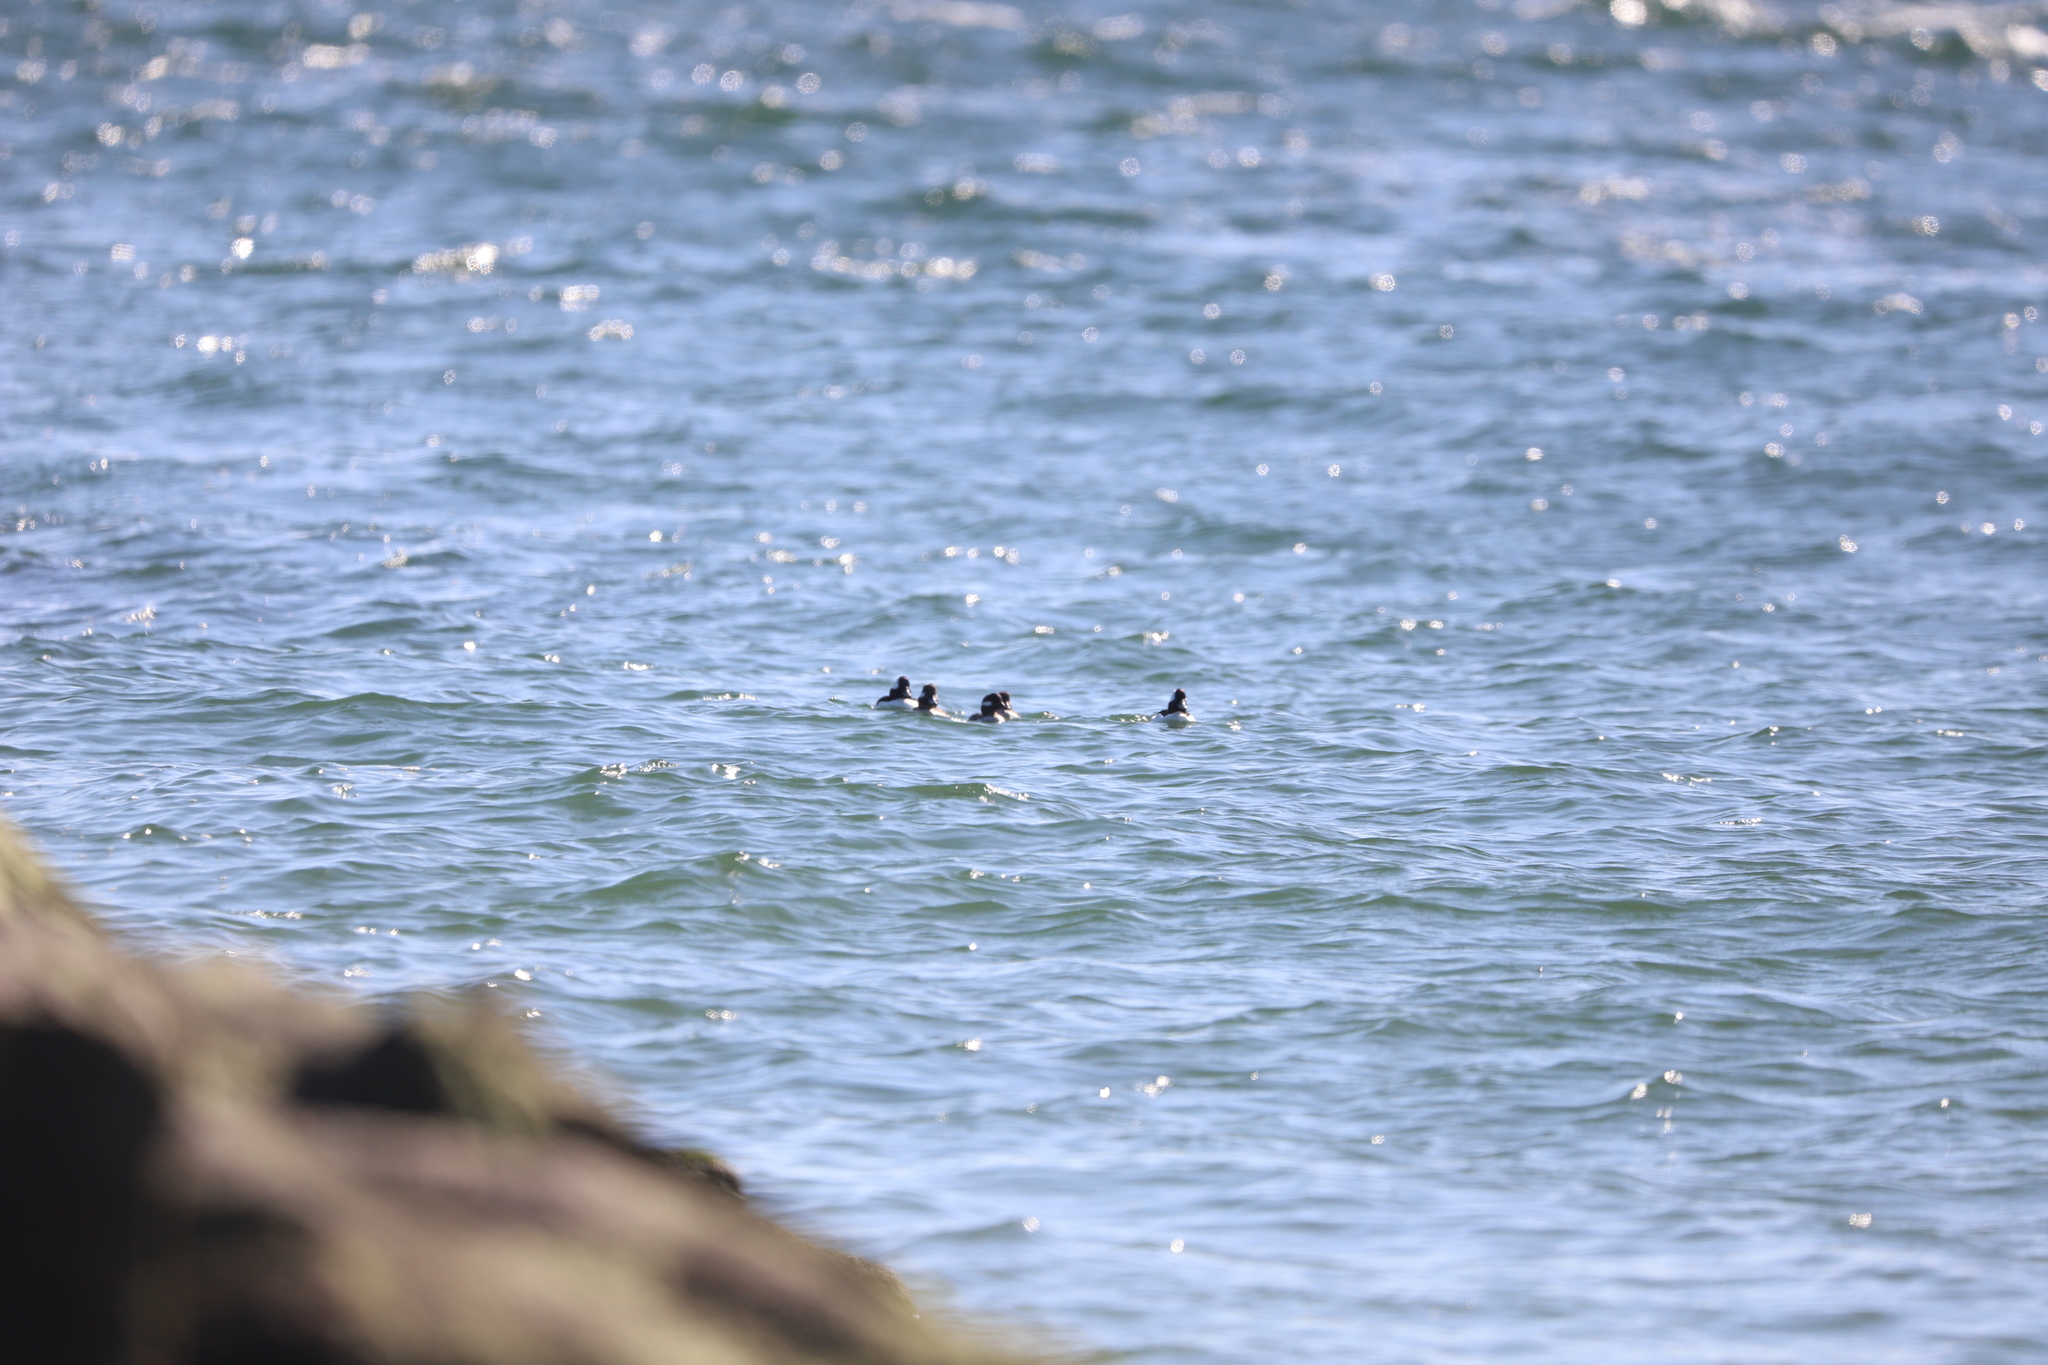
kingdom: Animalia
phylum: Chordata
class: Aves
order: Anseriformes
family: Anatidae
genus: Bucephala
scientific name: Bucephala albeola
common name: Bufflehead
